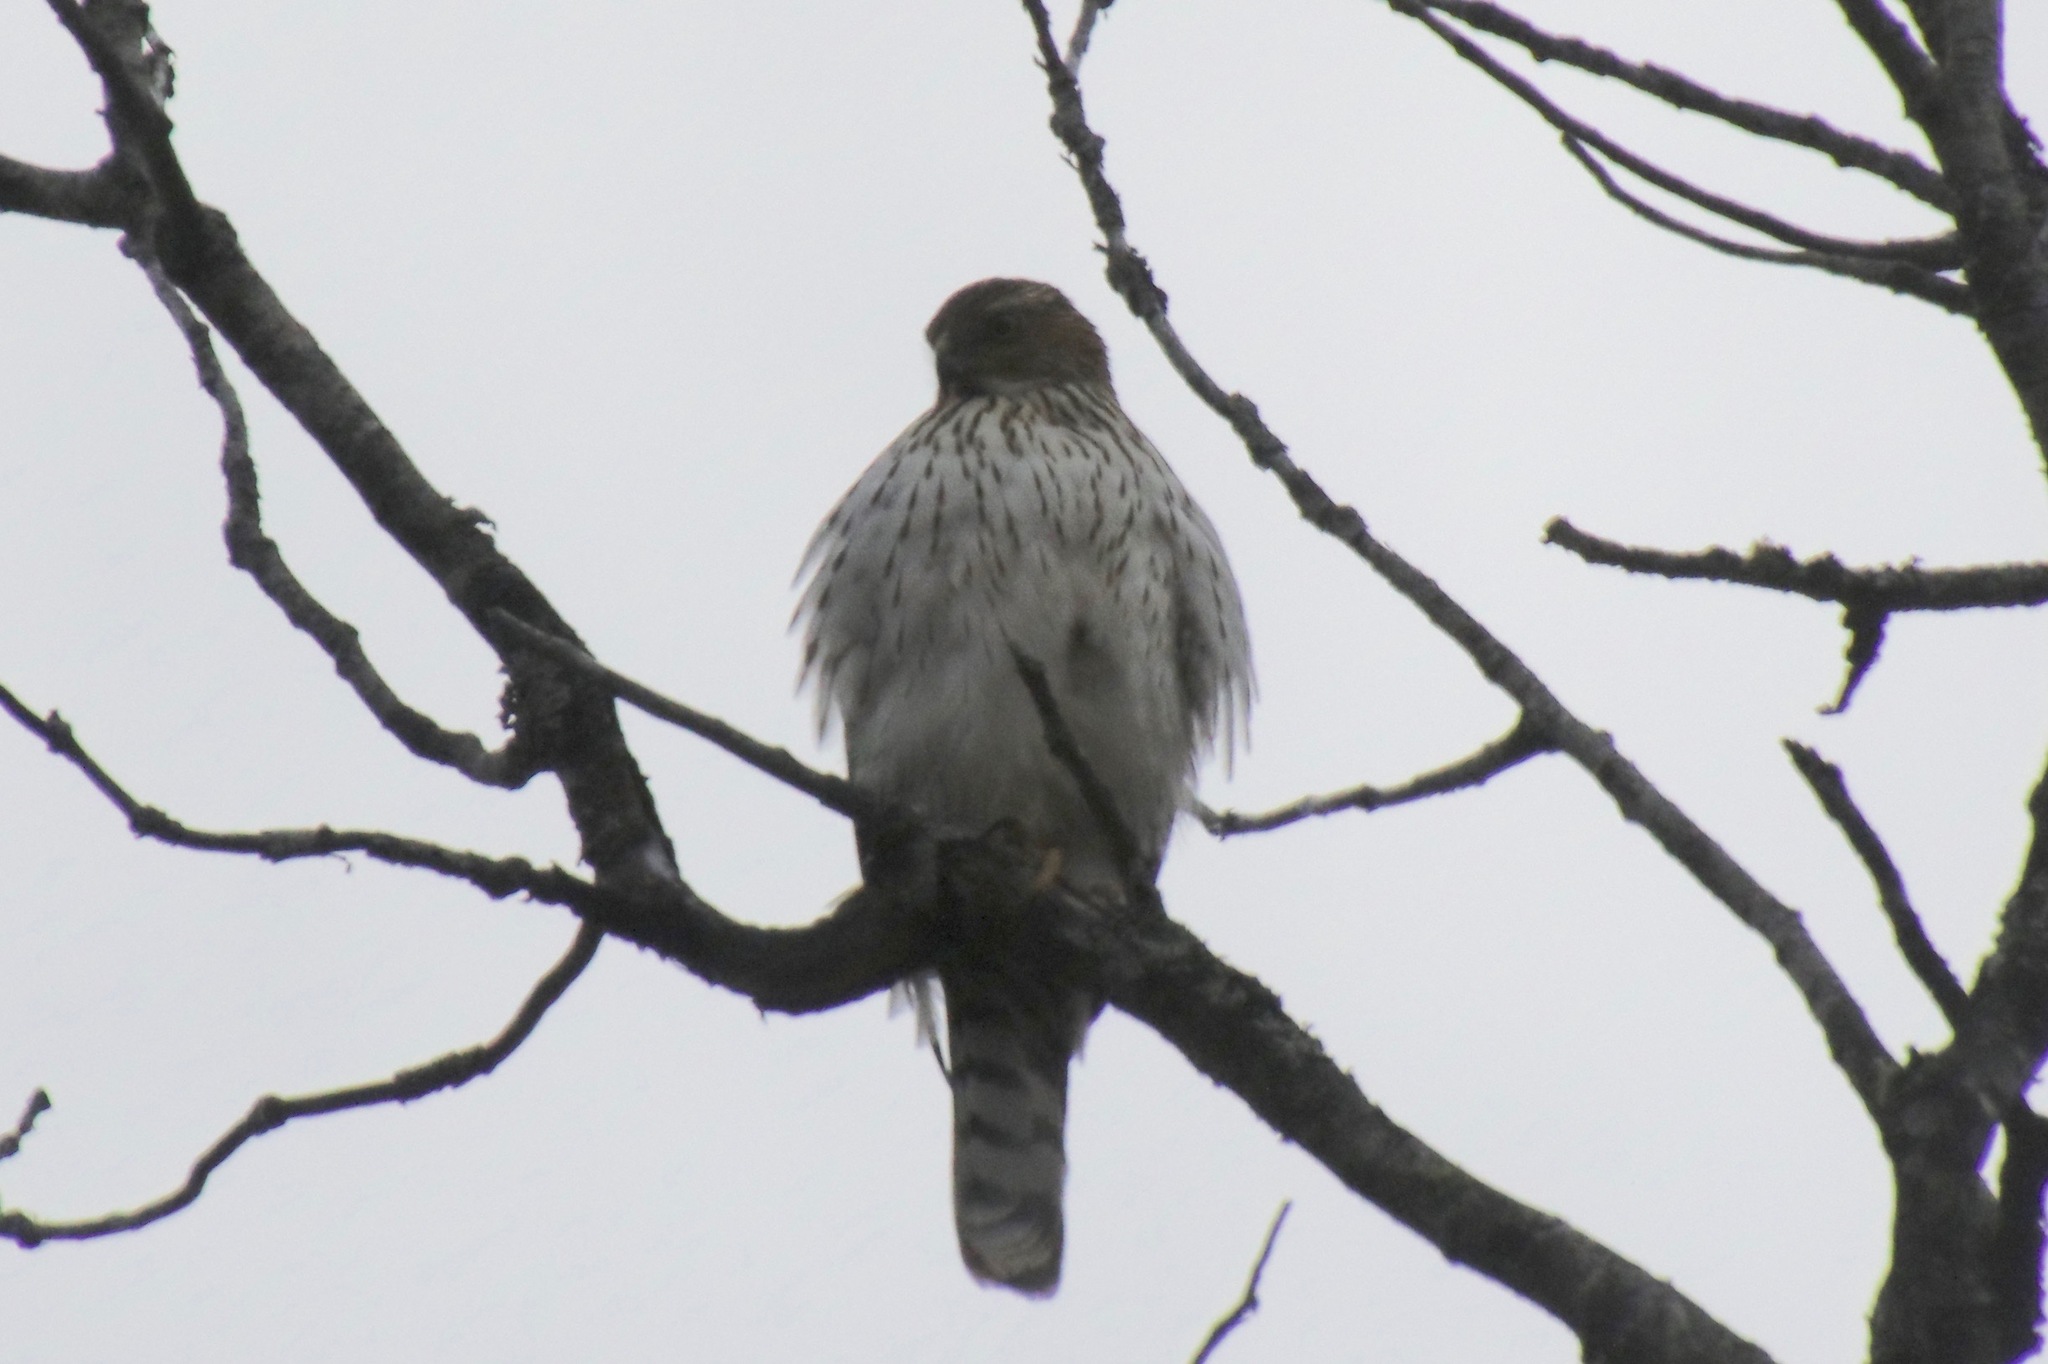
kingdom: Animalia
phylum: Chordata
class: Aves
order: Accipitriformes
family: Accipitridae
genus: Accipiter
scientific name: Accipiter cooperii
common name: Cooper's hawk
